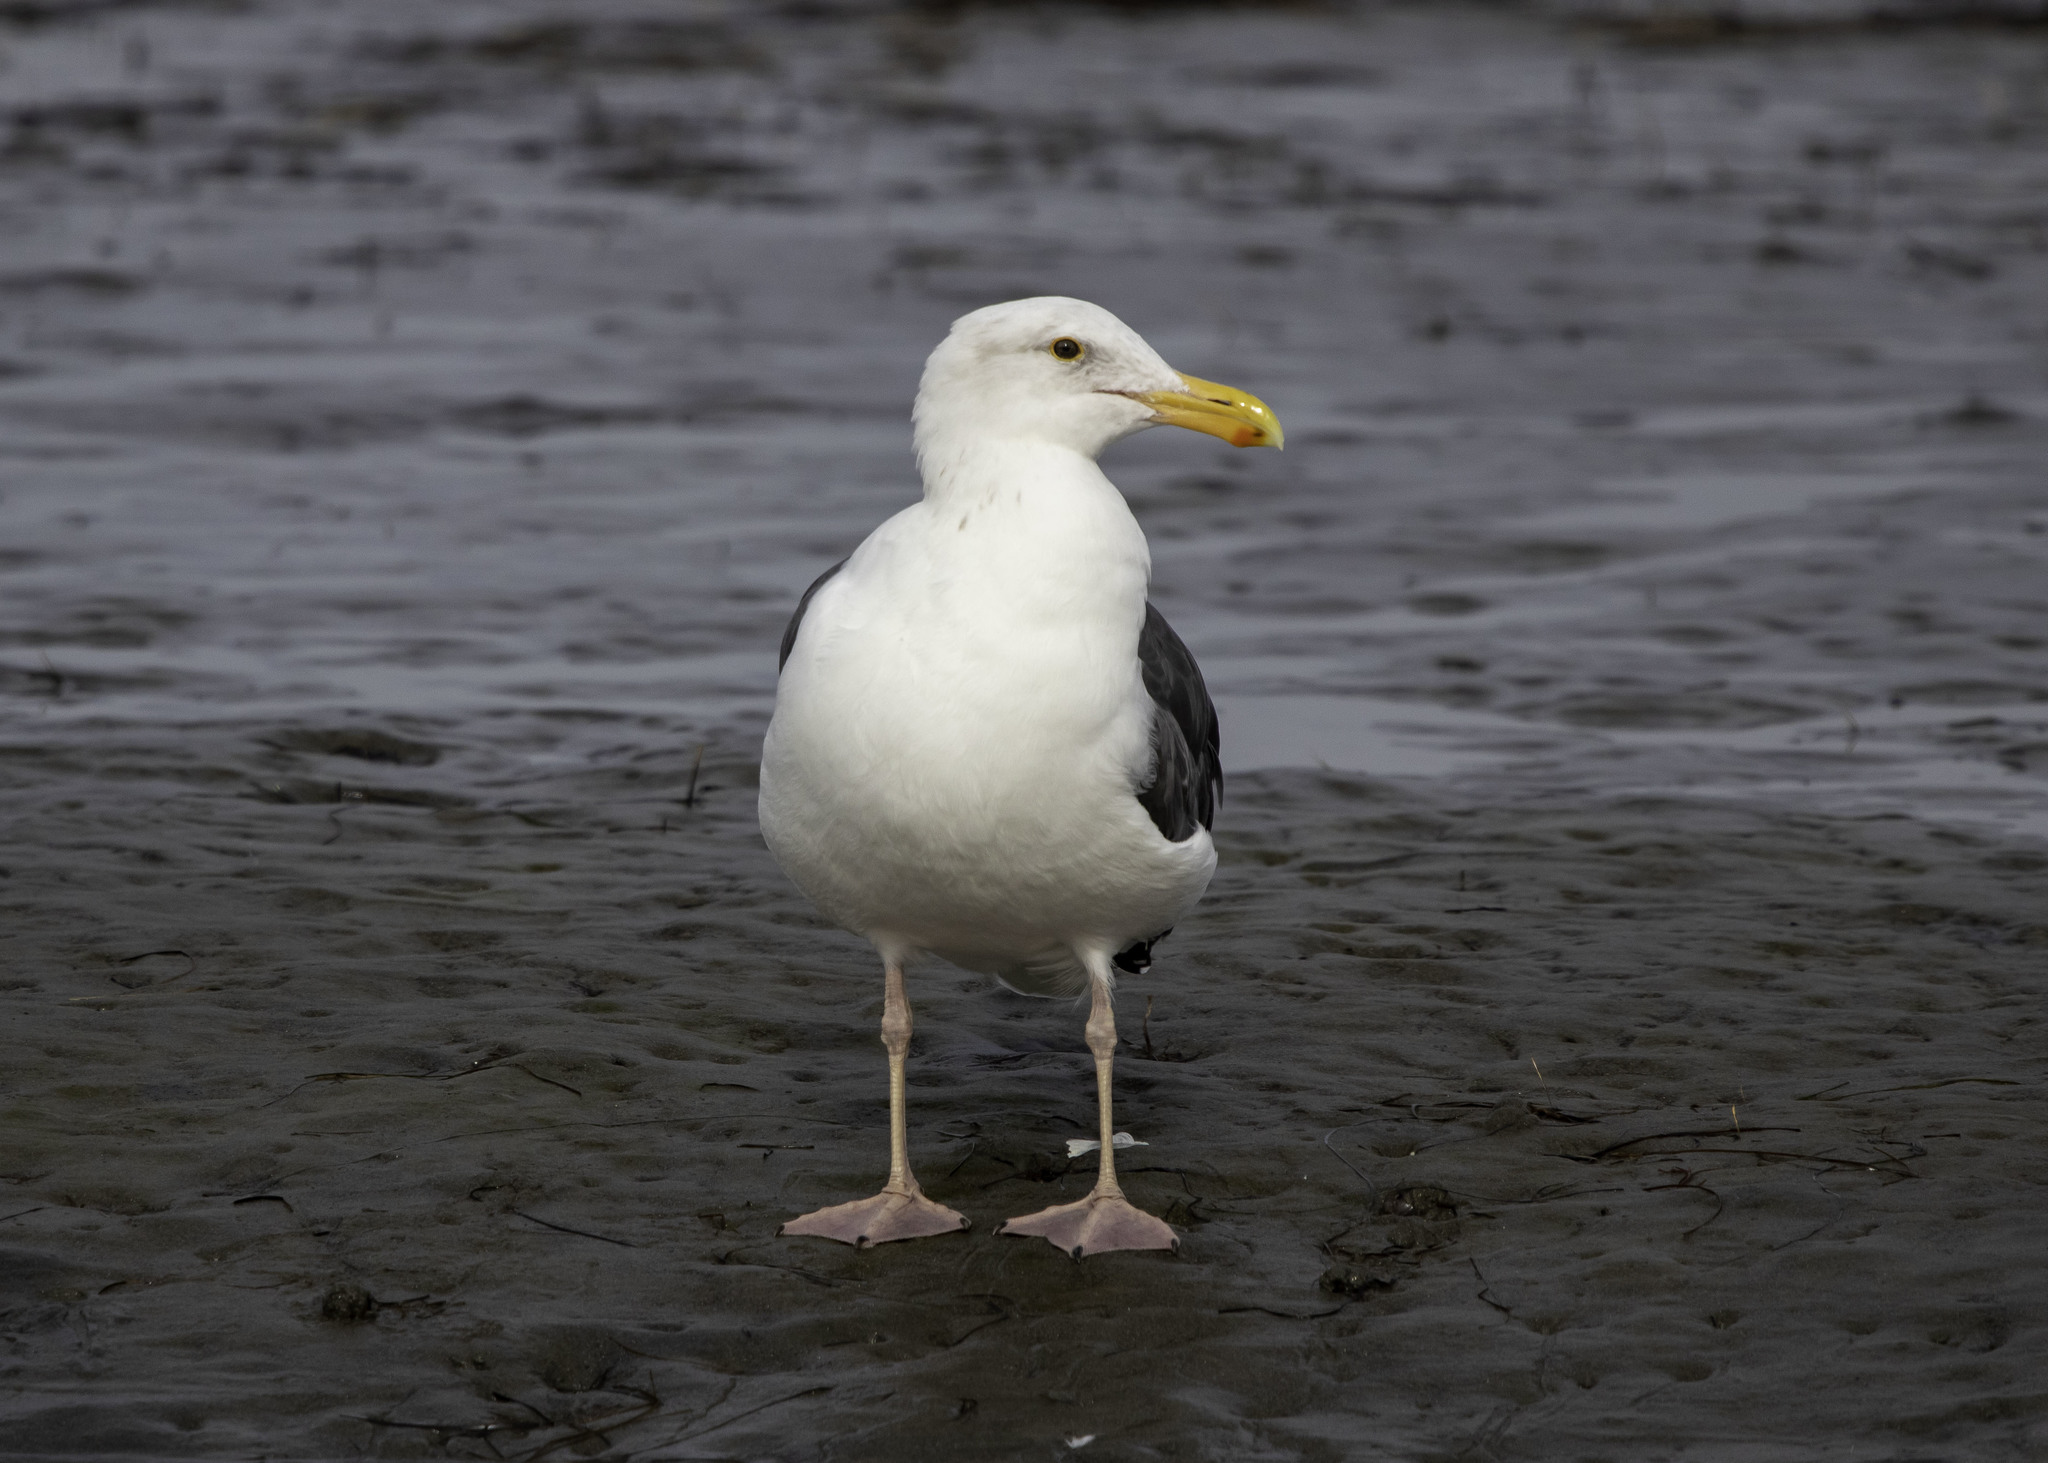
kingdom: Animalia
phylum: Chordata
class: Aves
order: Charadriiformes
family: Laridae
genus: Larus
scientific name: Larus occidentalis
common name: Western gull
